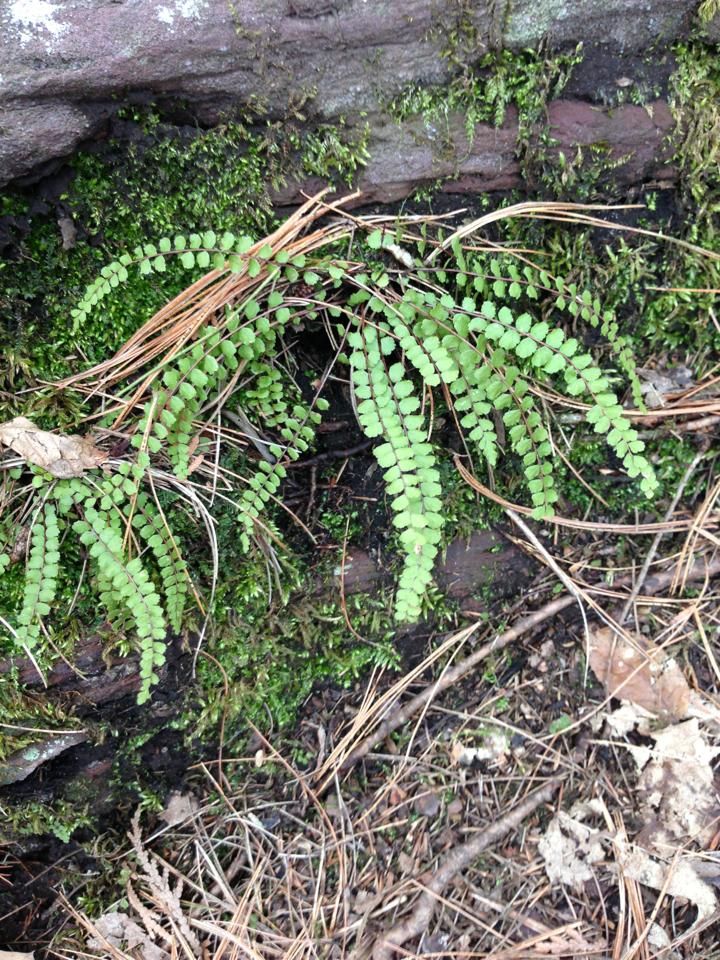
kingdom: Plantae
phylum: Tracheophyta
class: Polypodiopsida
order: Polypodiales
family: Aspleniaceae
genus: Asplenium
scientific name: Asplenium trichomanes
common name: Maidenhair spleenwort
